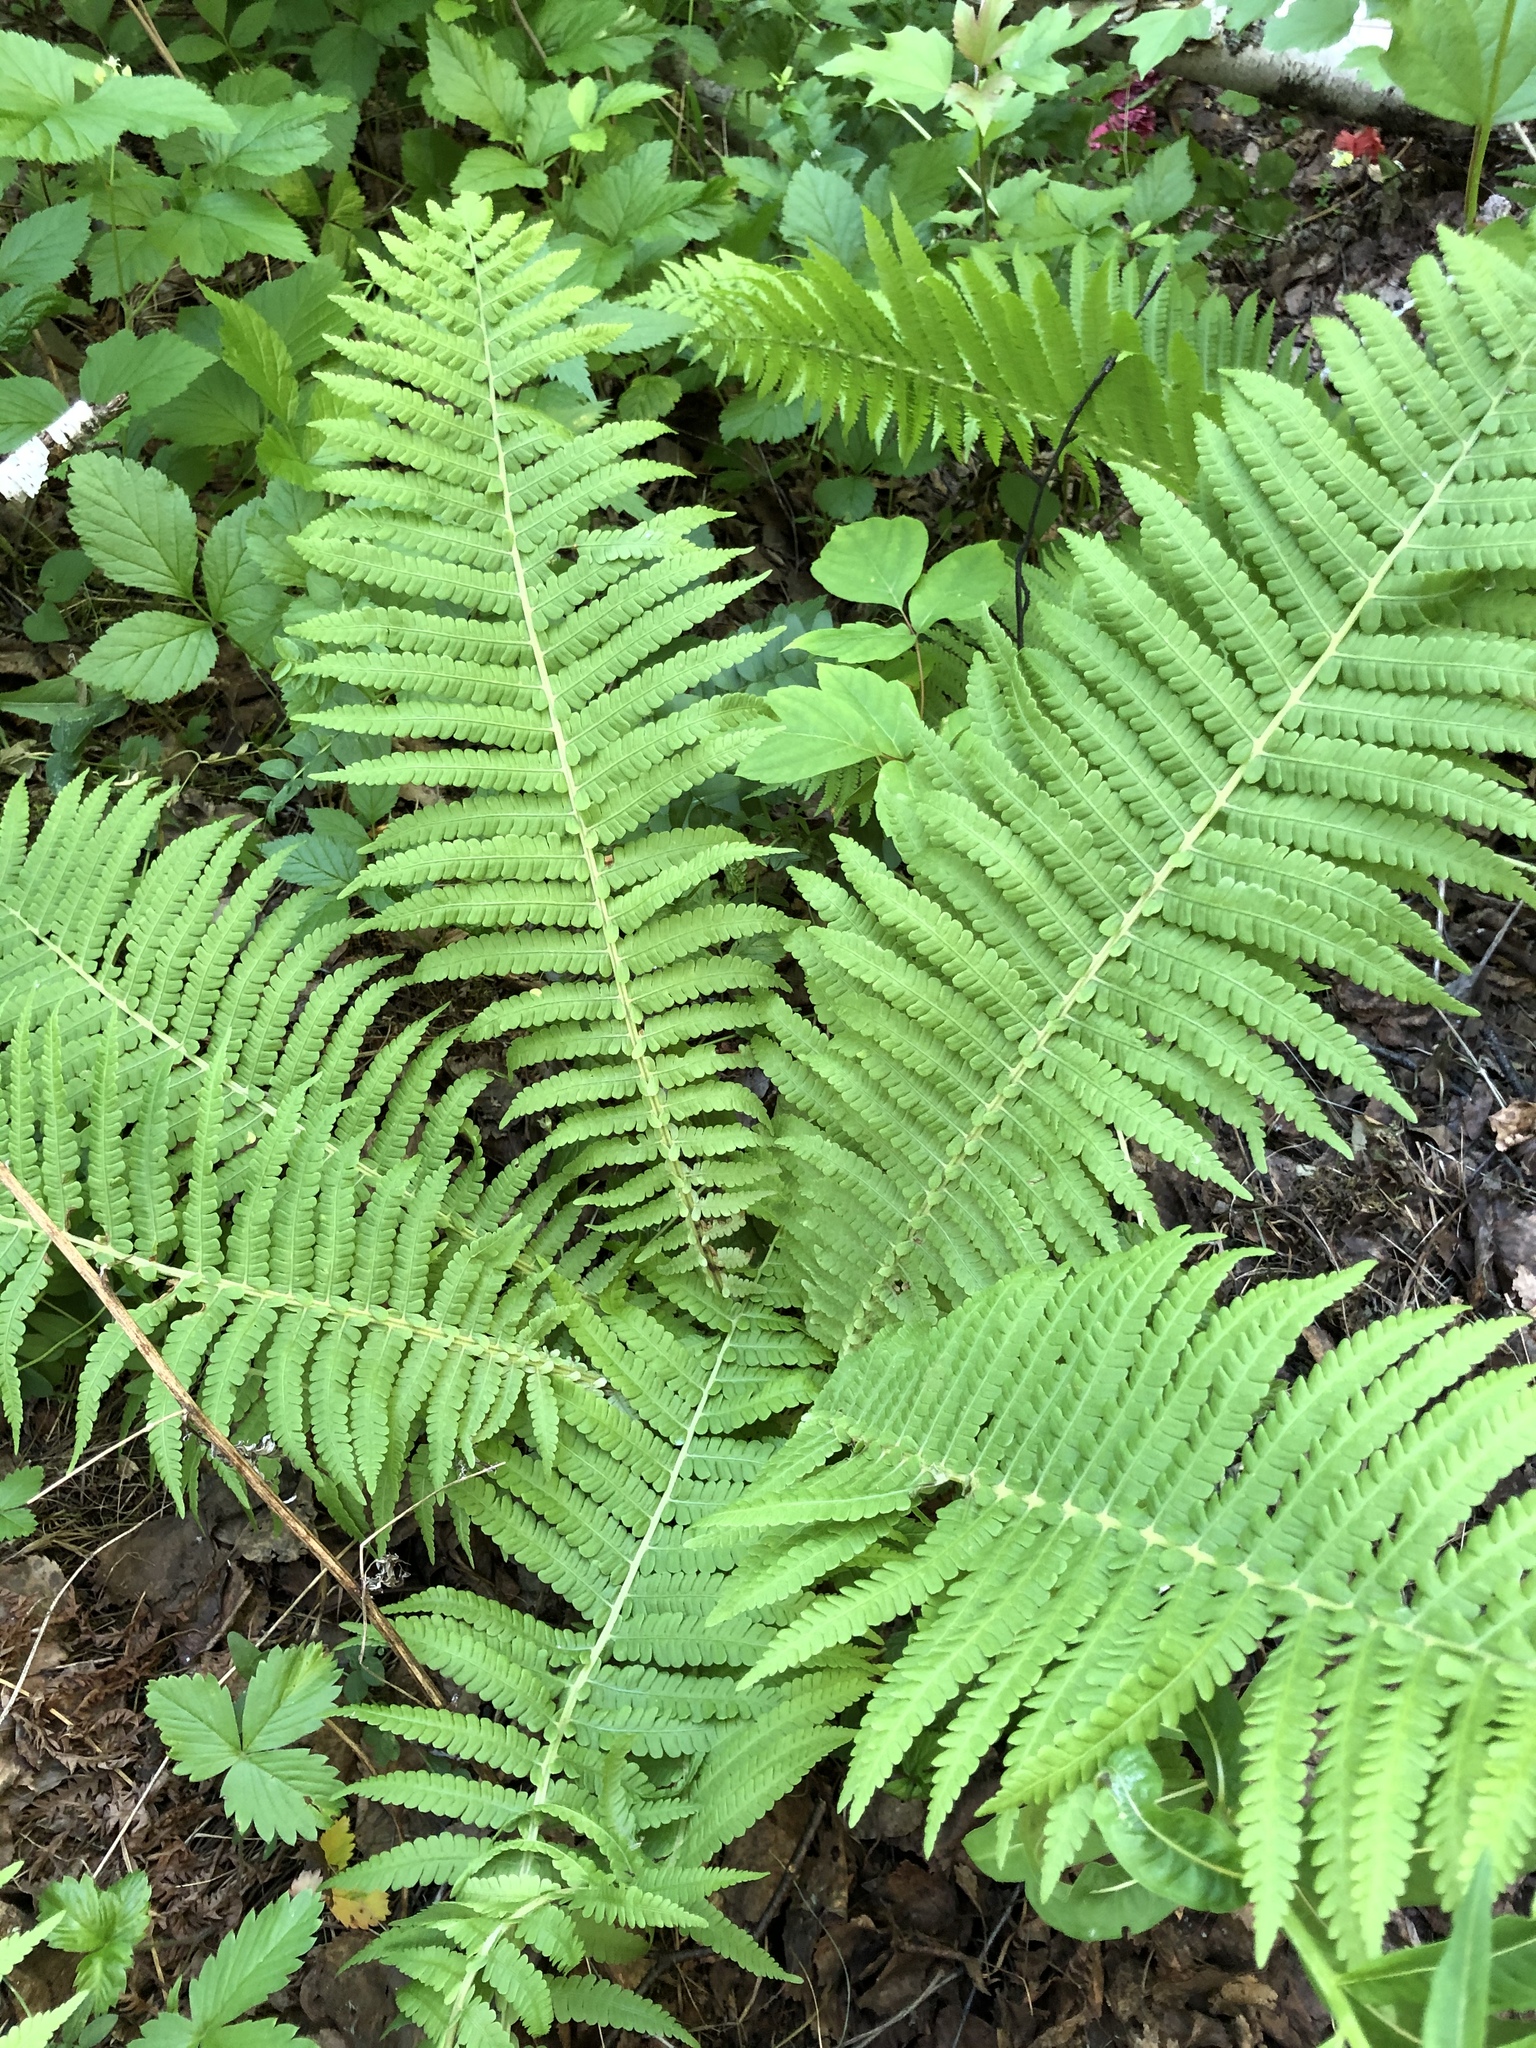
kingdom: Plantae
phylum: Tracheophyta
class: Polypodiopsida
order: Polypodiales
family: Onocleaceae
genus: Matteuccia
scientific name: Matteuccia struthiopteris
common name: Ostrich fern
